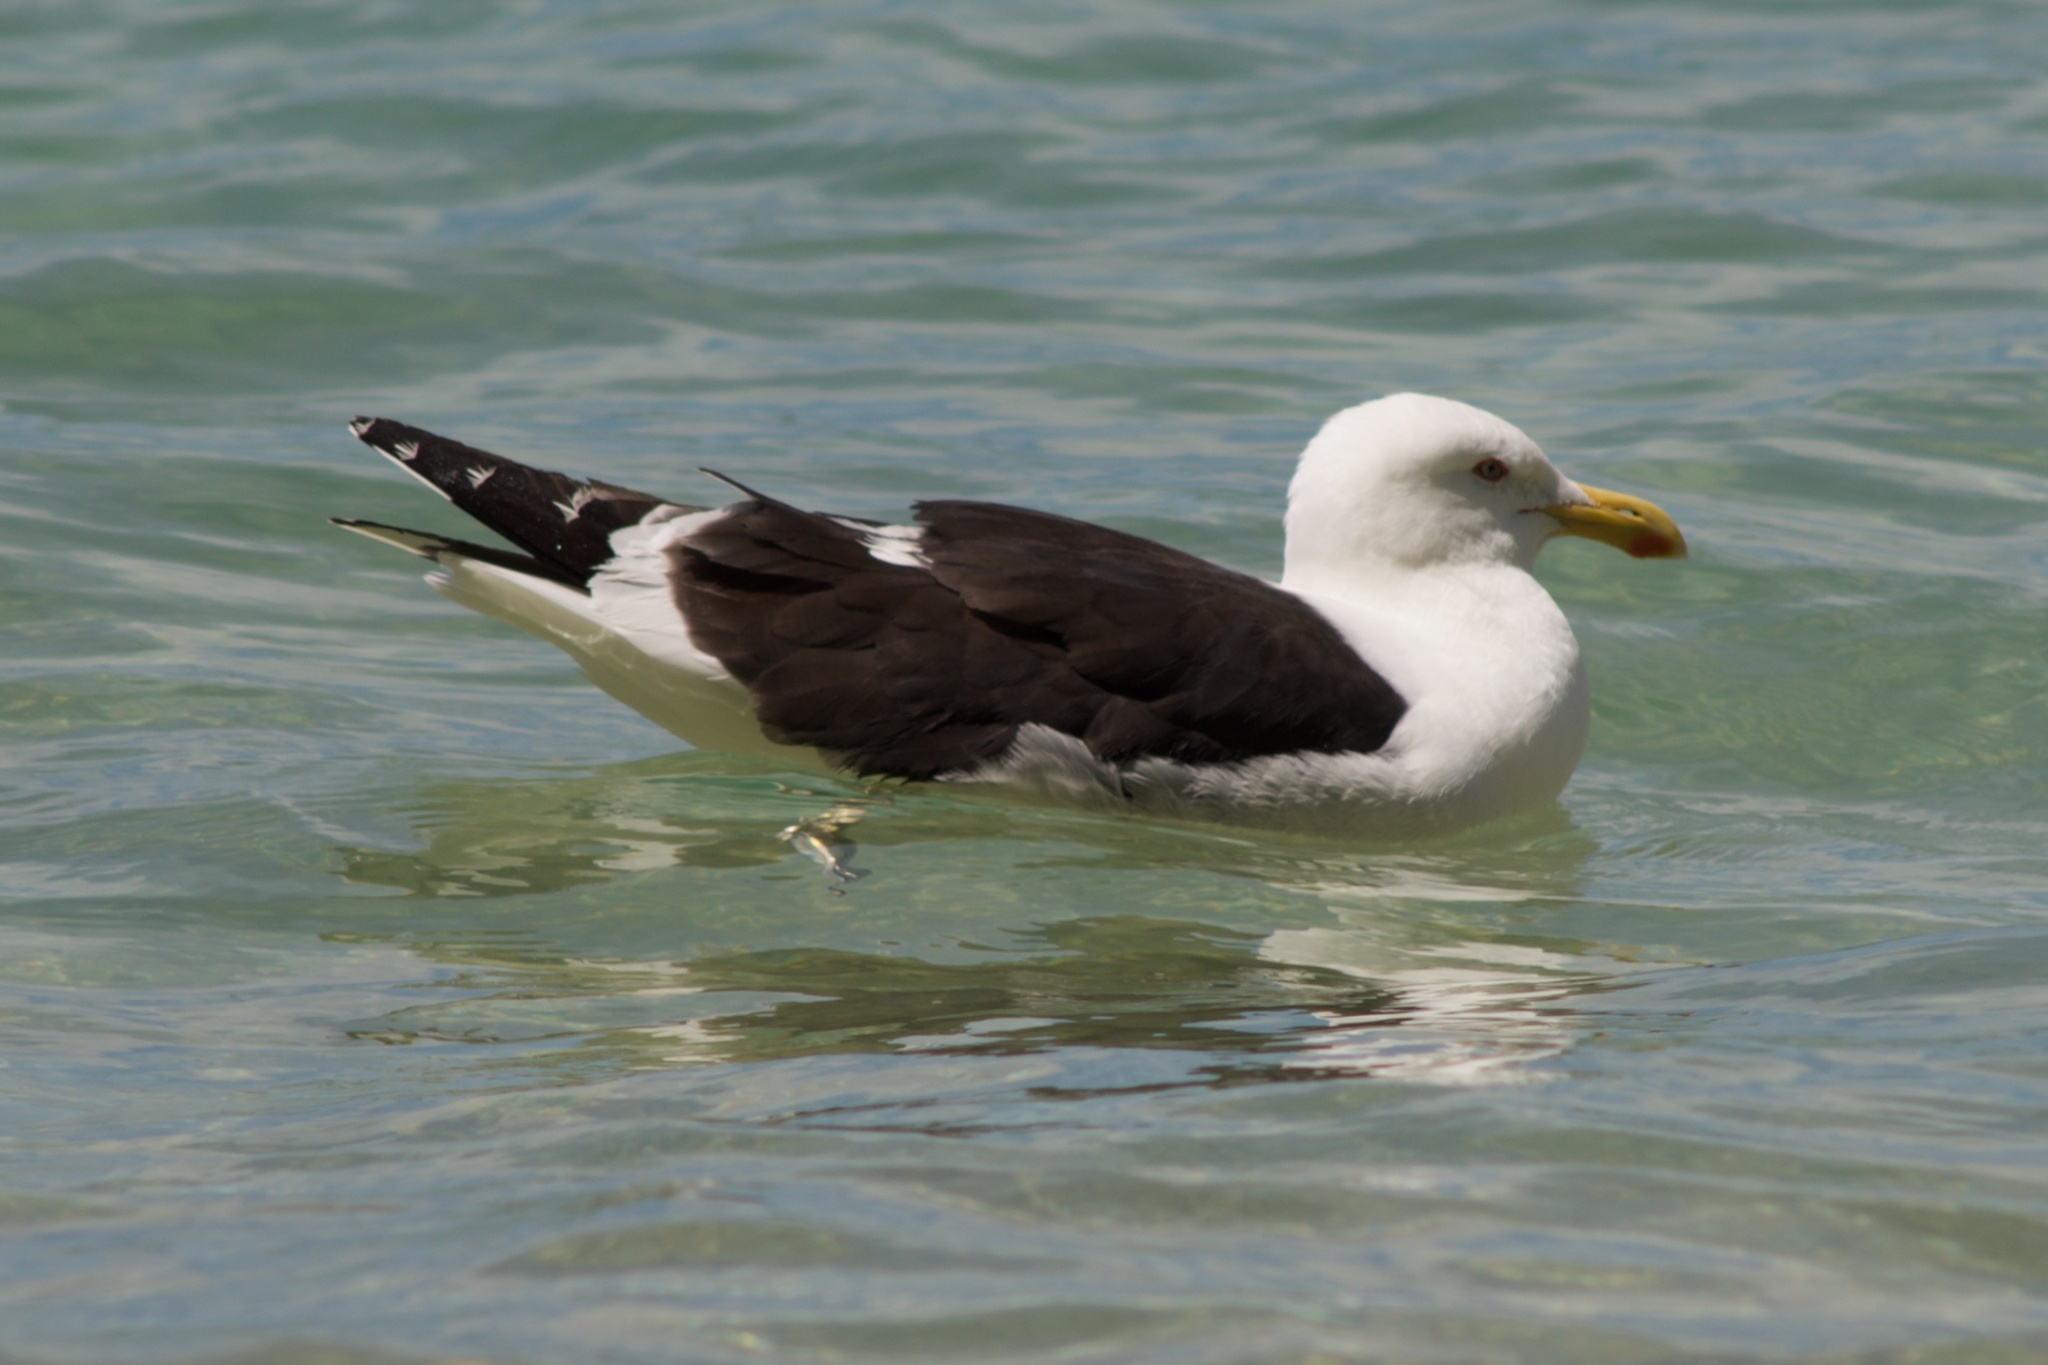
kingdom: Animalia
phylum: Chordata
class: Aves
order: Charadriiformes
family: Laridae
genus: Larus
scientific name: Larus dominicanus
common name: Kelp gull
